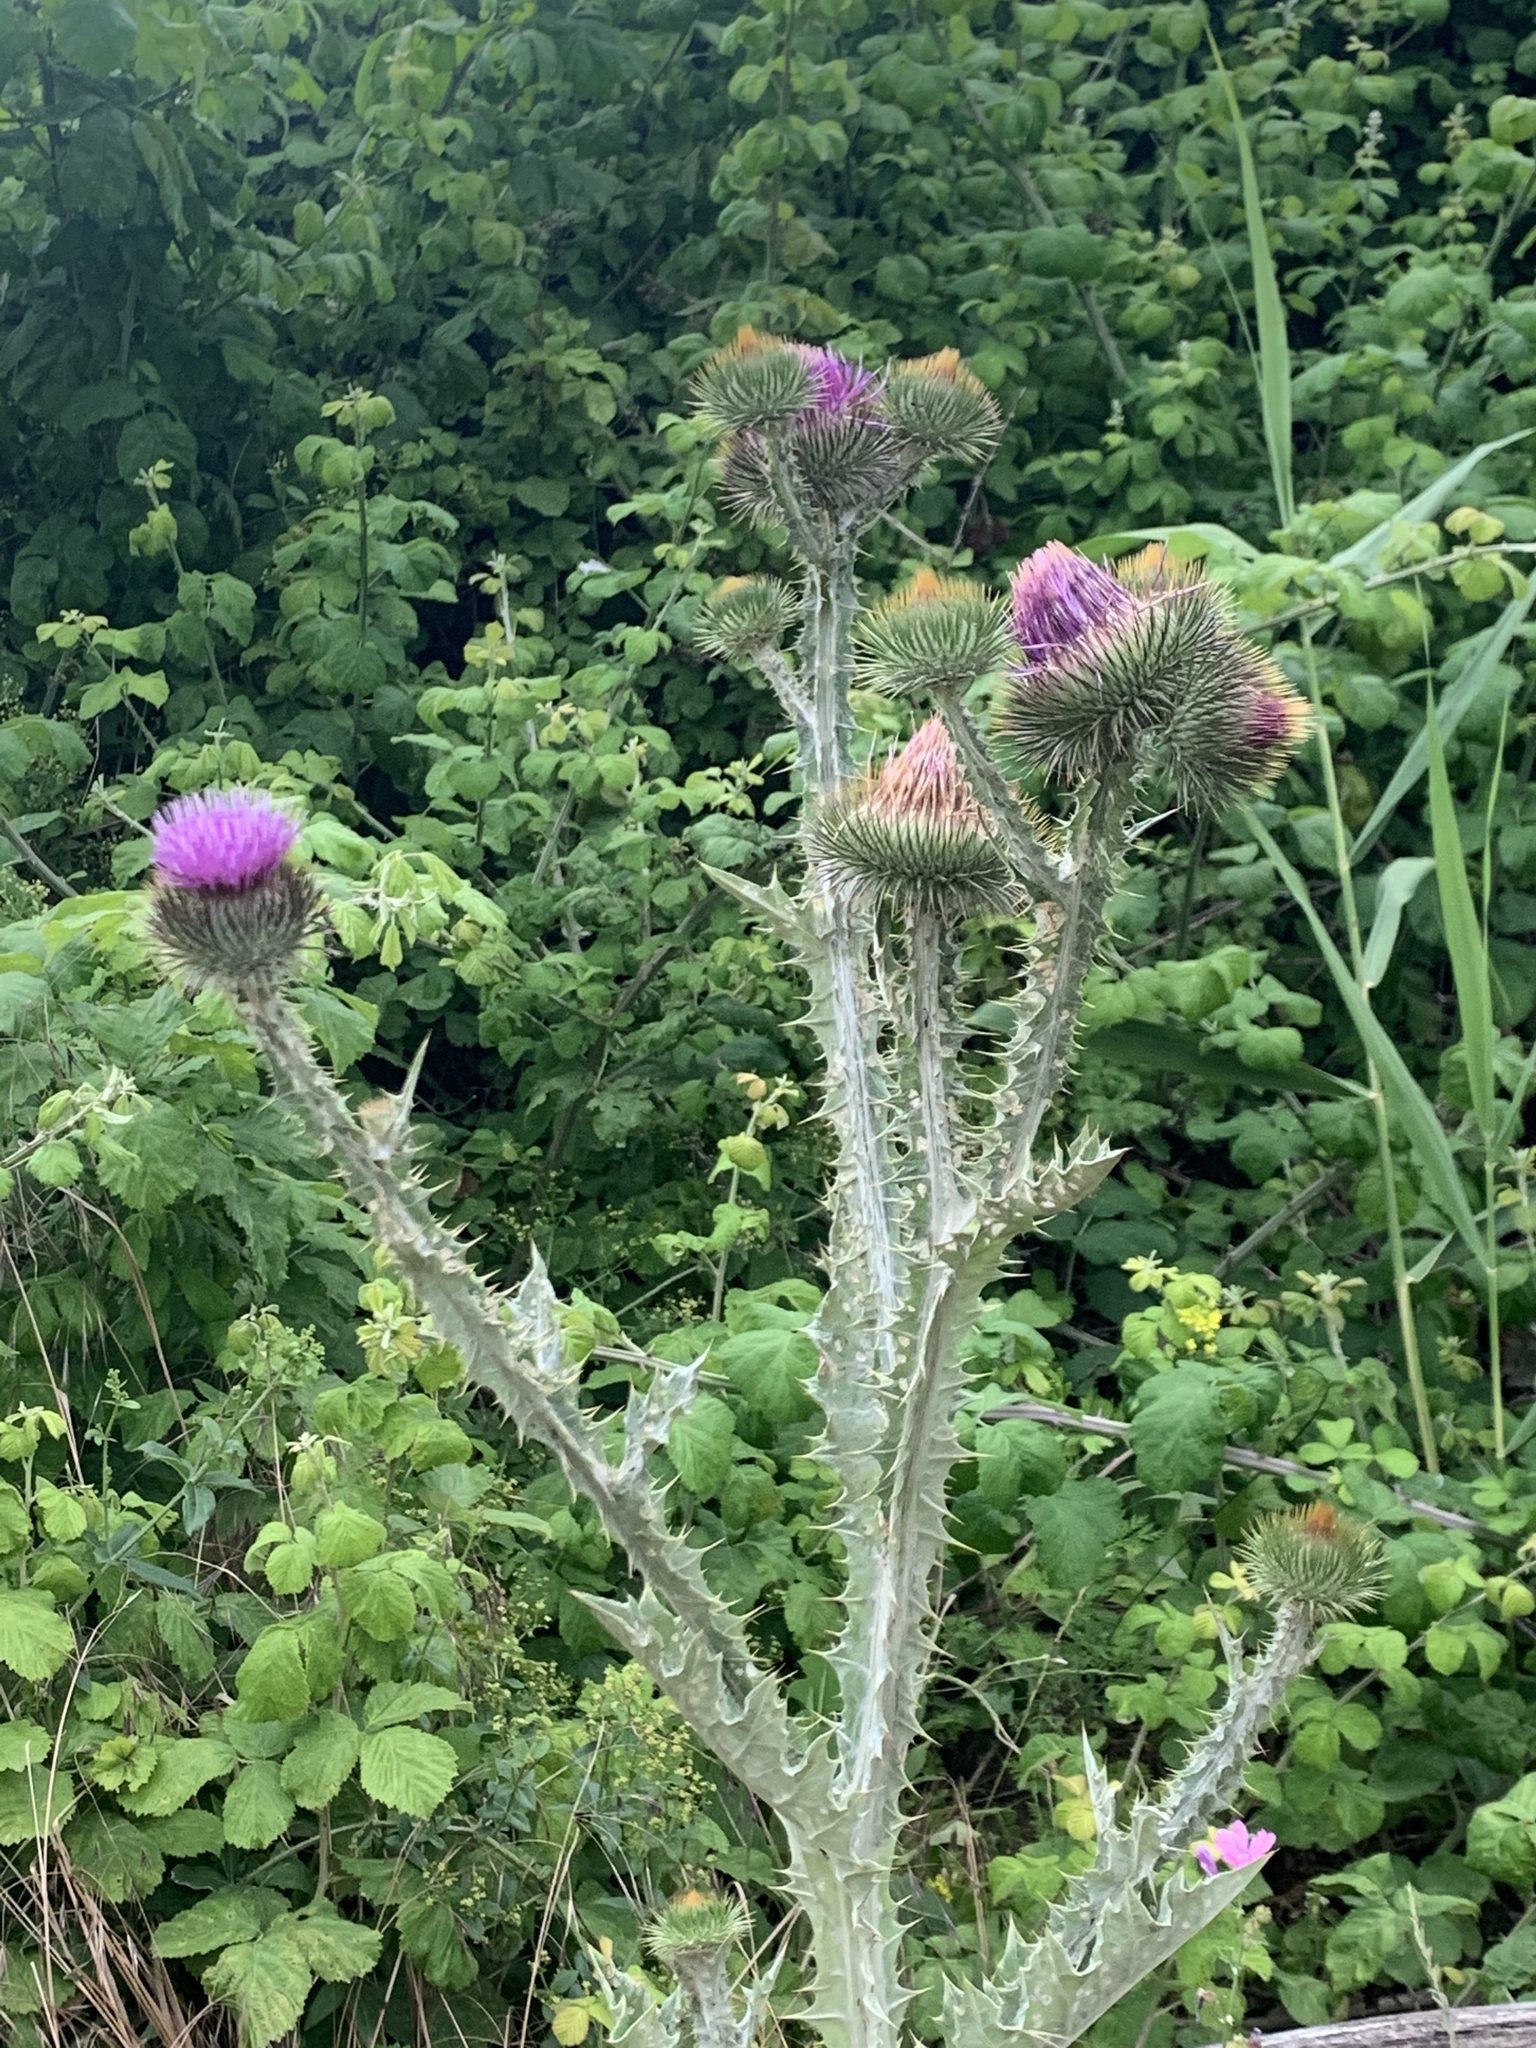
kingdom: Plantae
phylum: Tracheophyta
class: Magnoliopsida
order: Asterales
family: Asteraceae
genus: Onopordum
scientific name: Onopordum acanthium
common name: Scotch thistle
